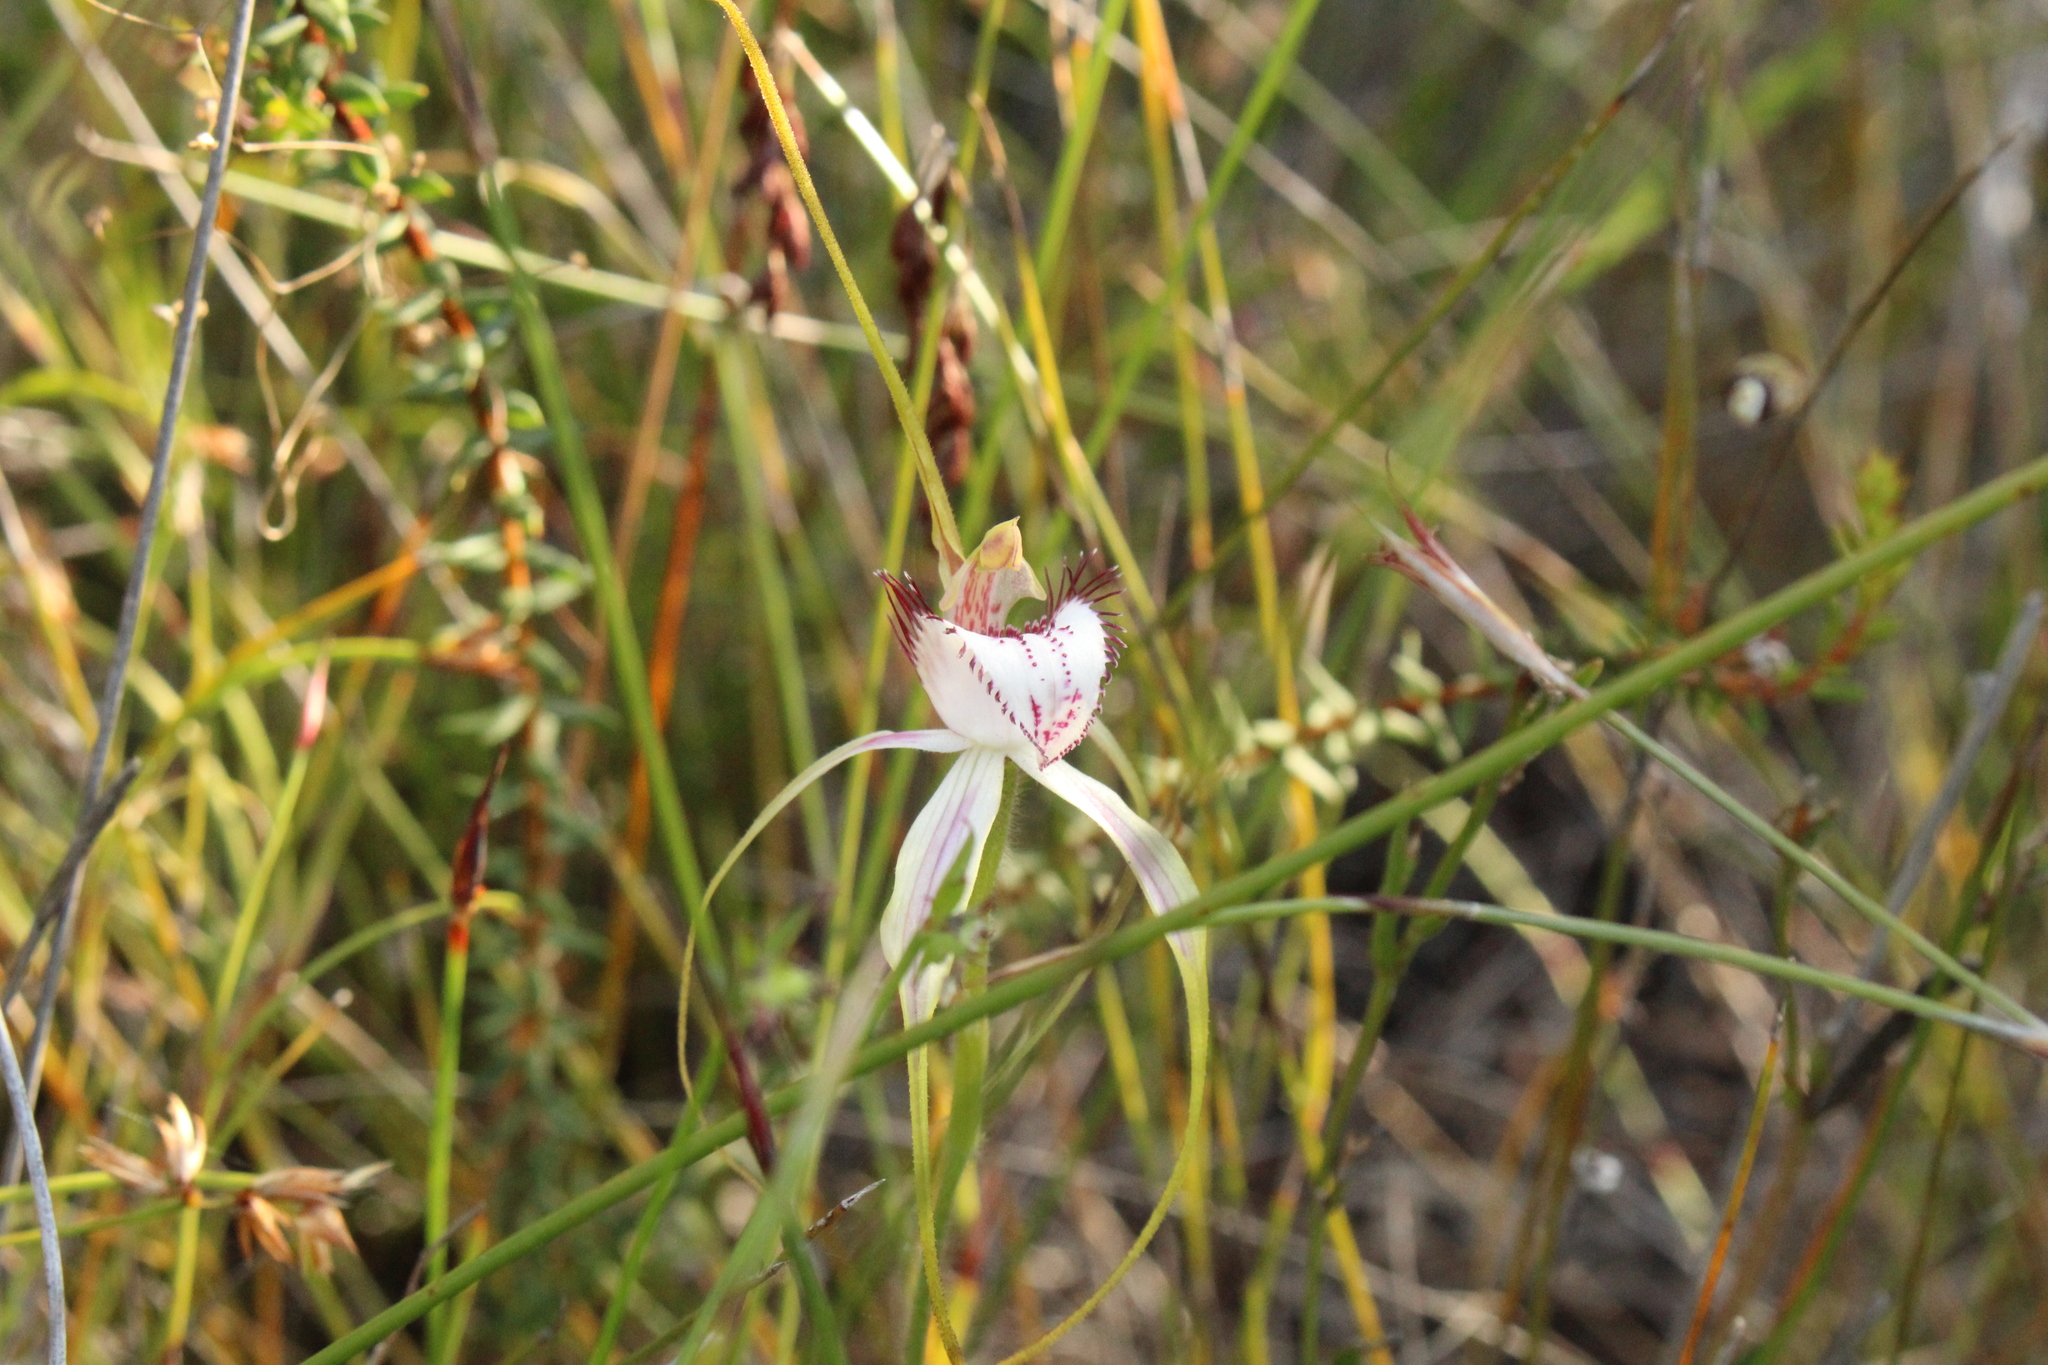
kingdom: Plantae
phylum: Tracheophyta
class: Liliopsida
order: Asparagales
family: Orchidaceae
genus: Caladenia
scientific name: Caladenia serotina
